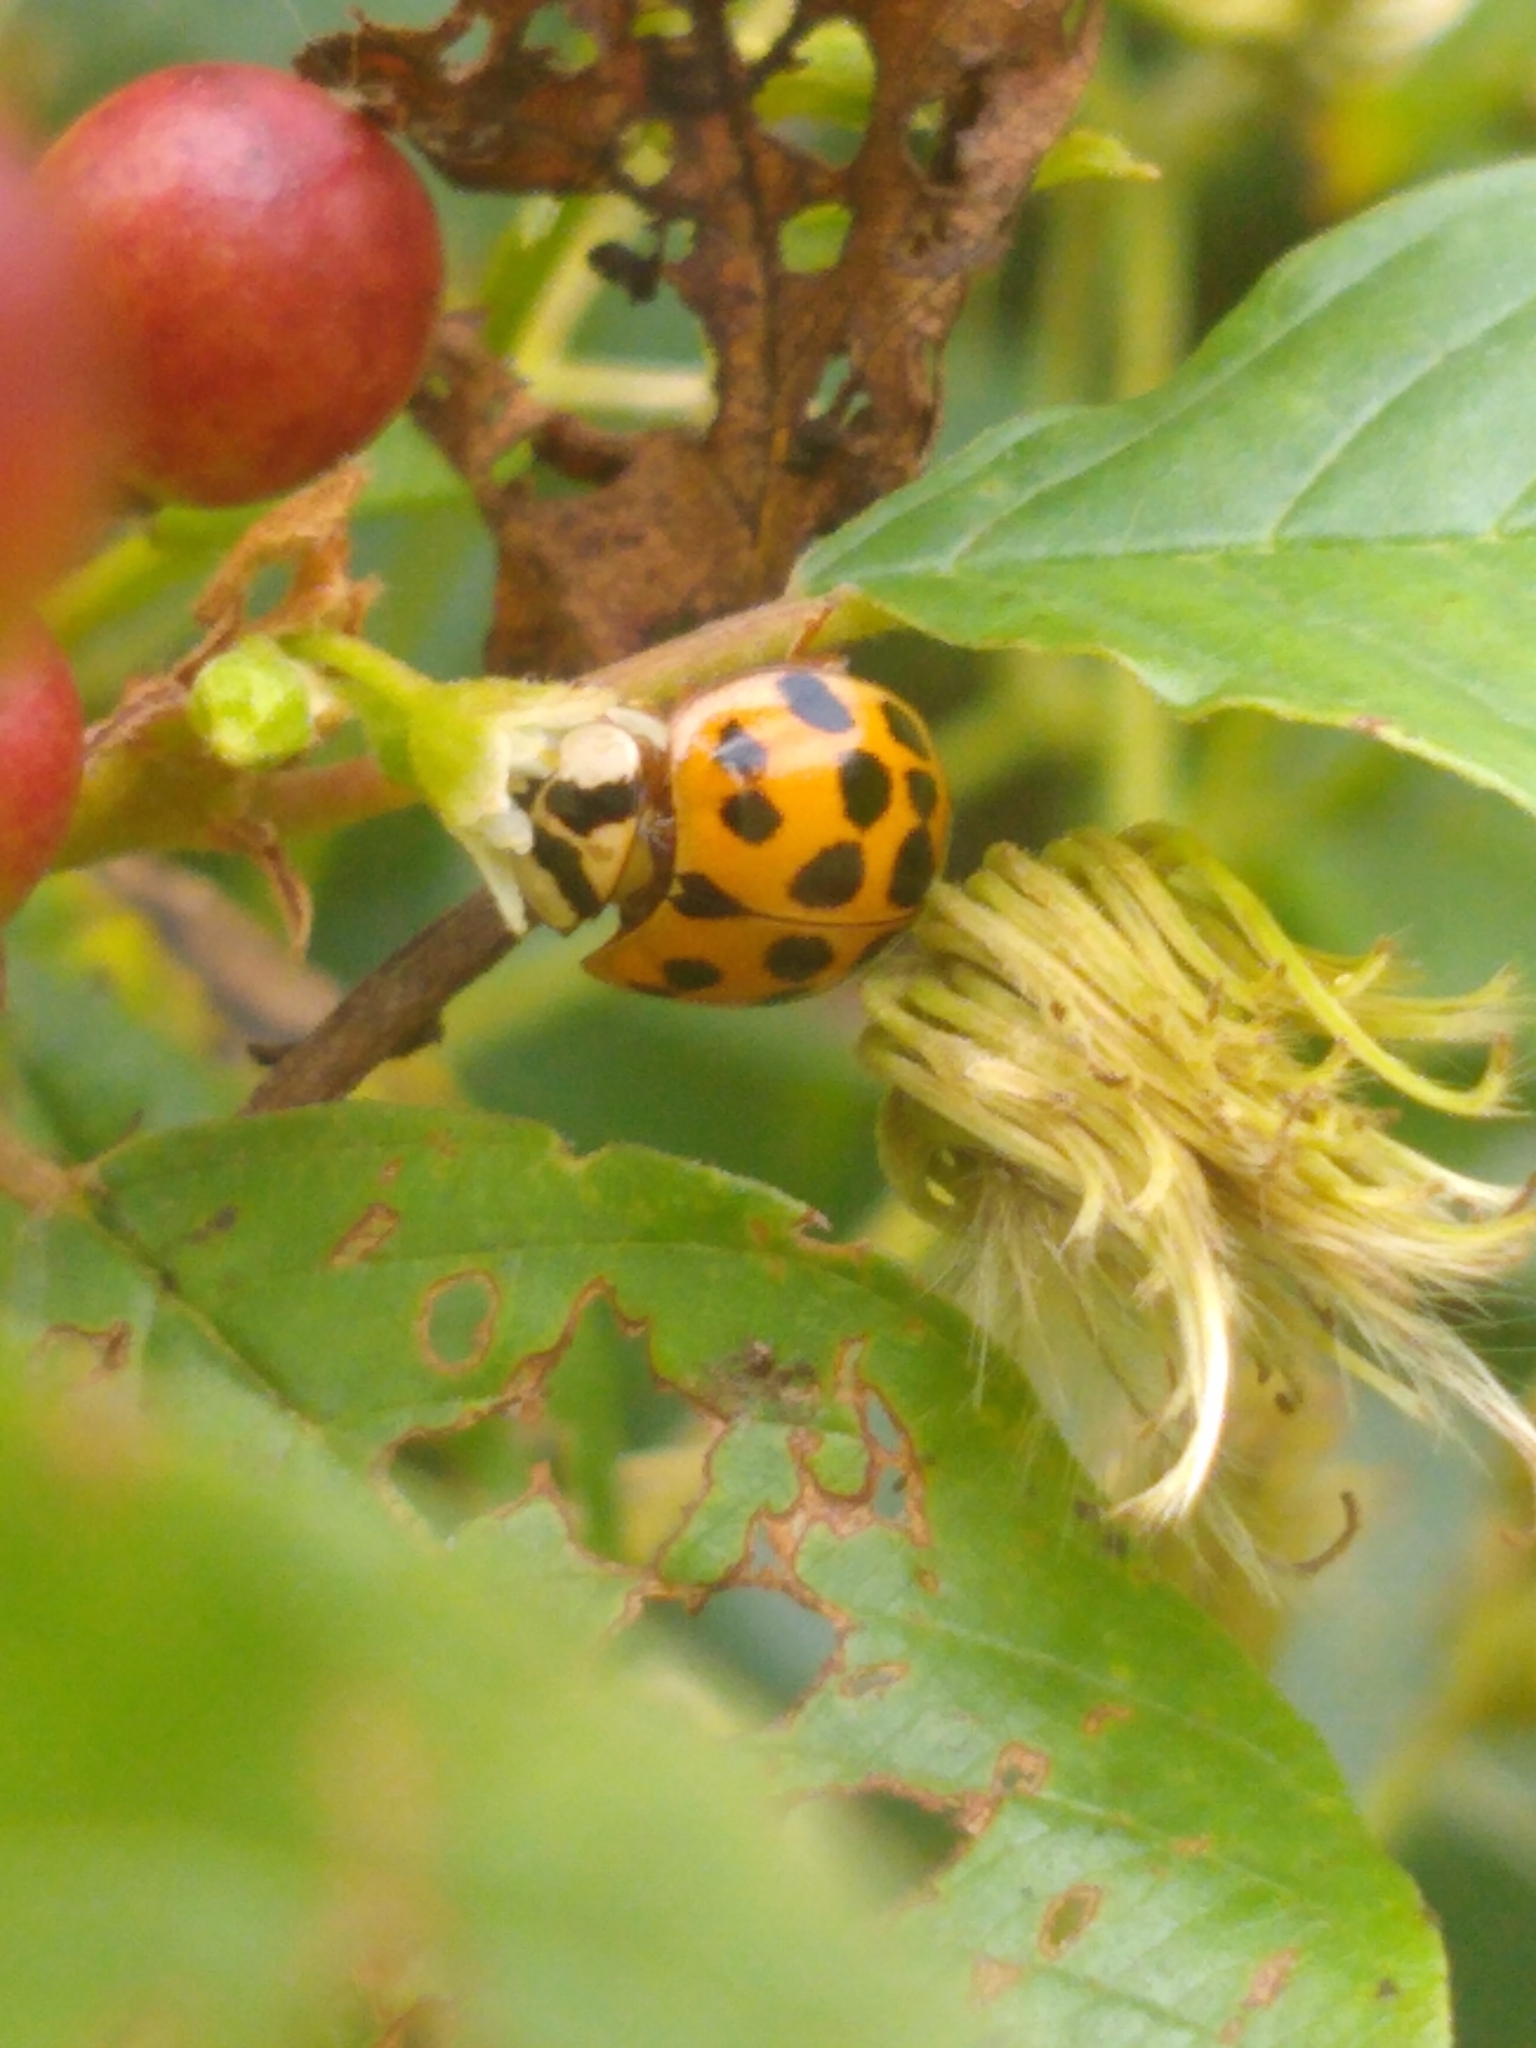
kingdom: Animalia
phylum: Arthropoda
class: Insecta
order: Coleoptera
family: Coccinellidae
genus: Harmonia
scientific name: Harmonia axyridis
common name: Harlequin ladybird
